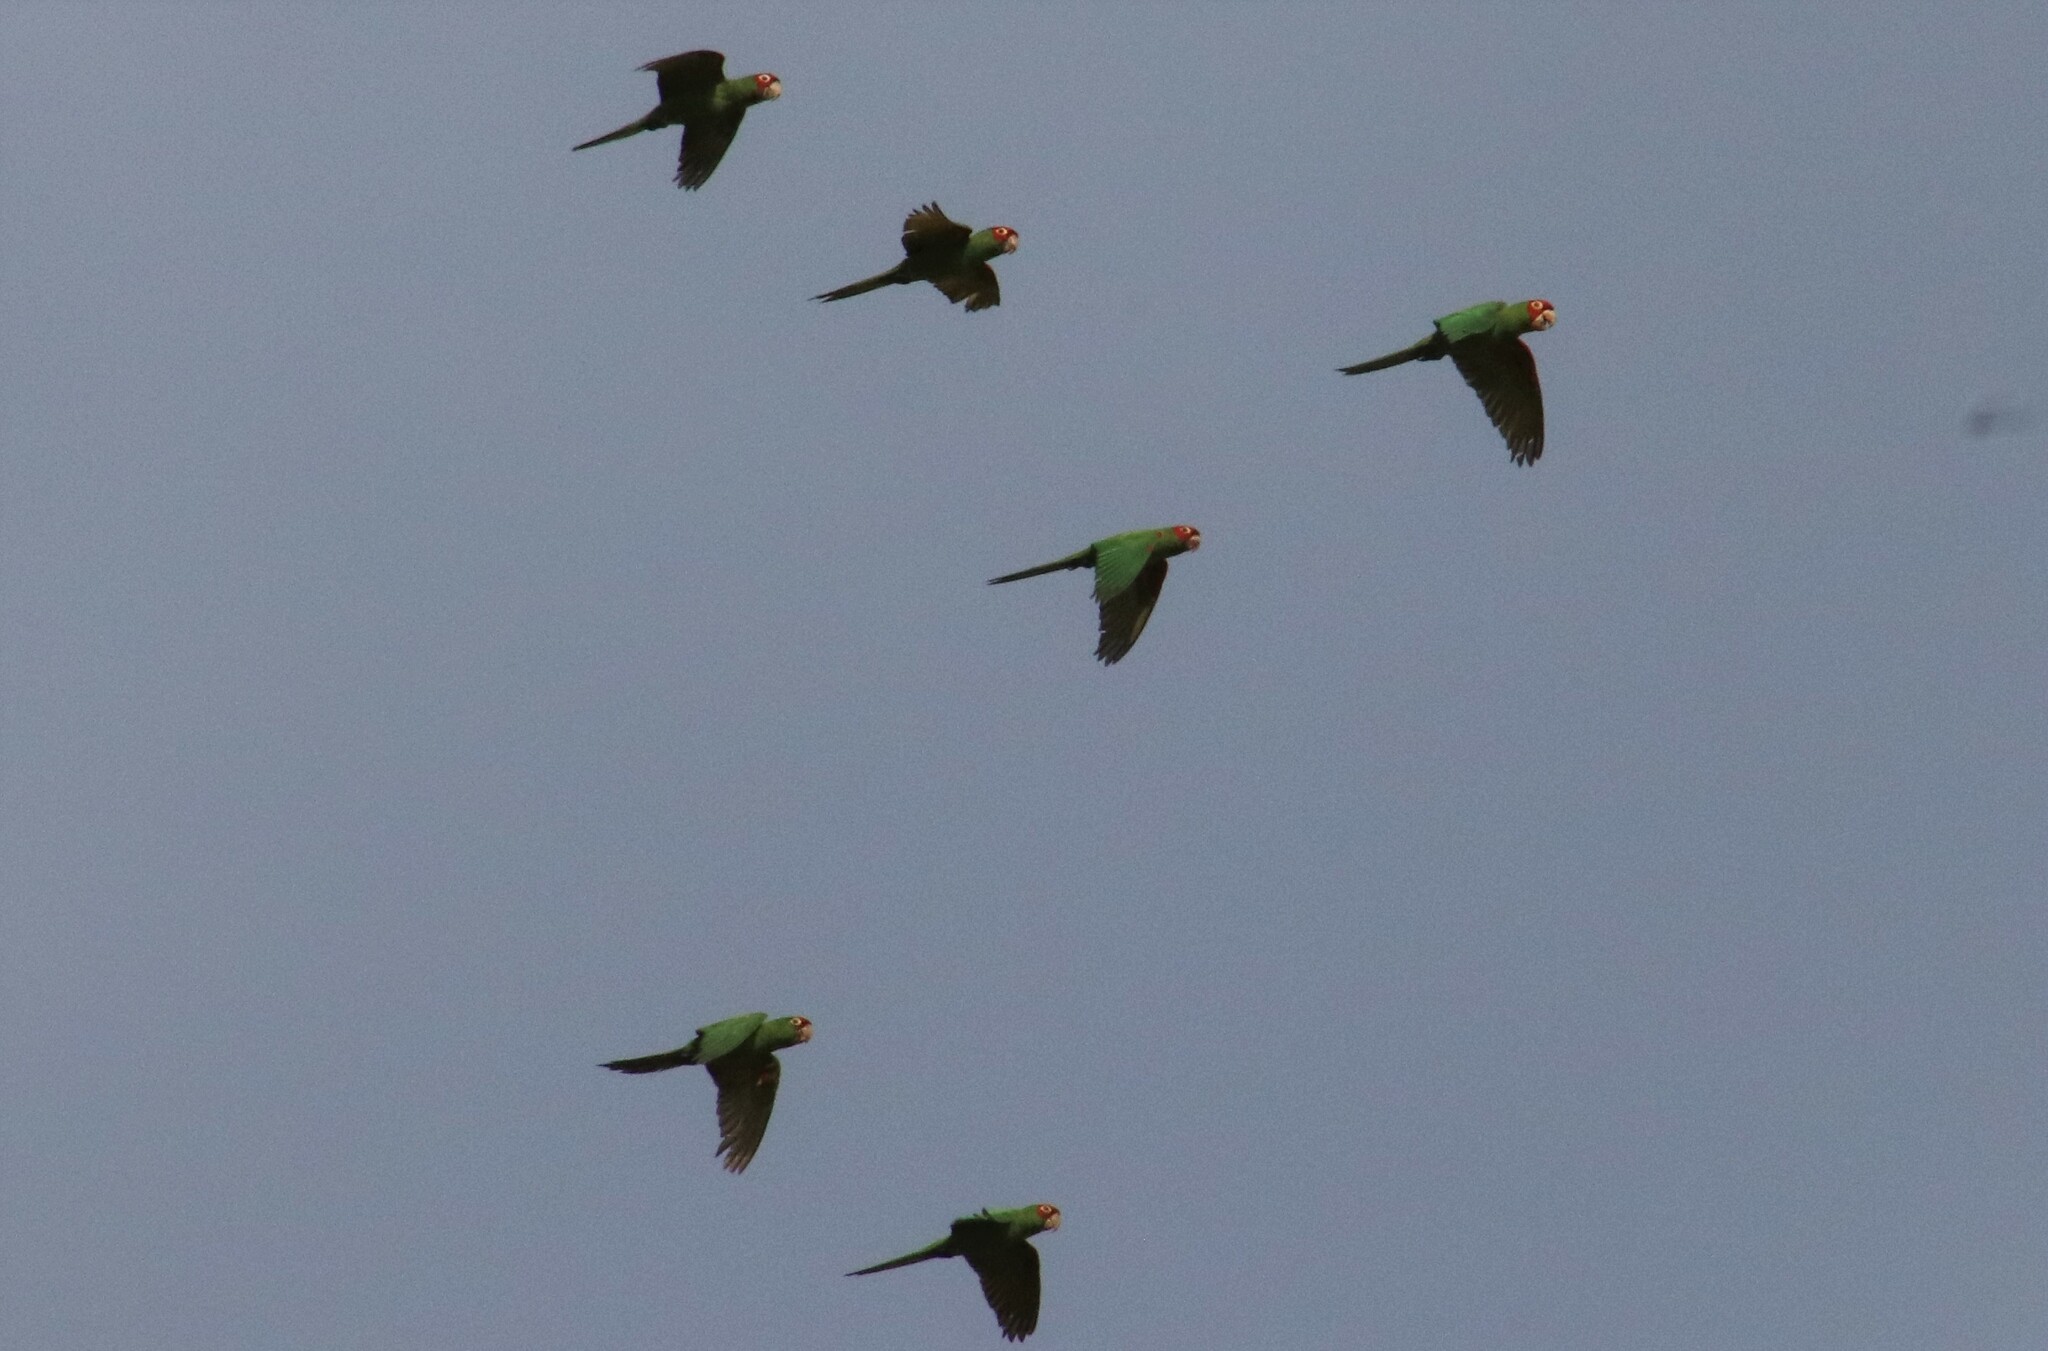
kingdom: Animalia
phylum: Chordata
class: Aves
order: Psittaciformes
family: Psittacidae
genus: Aratinga
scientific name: Aratinga erythrogenys
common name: Red-masked parakeet
